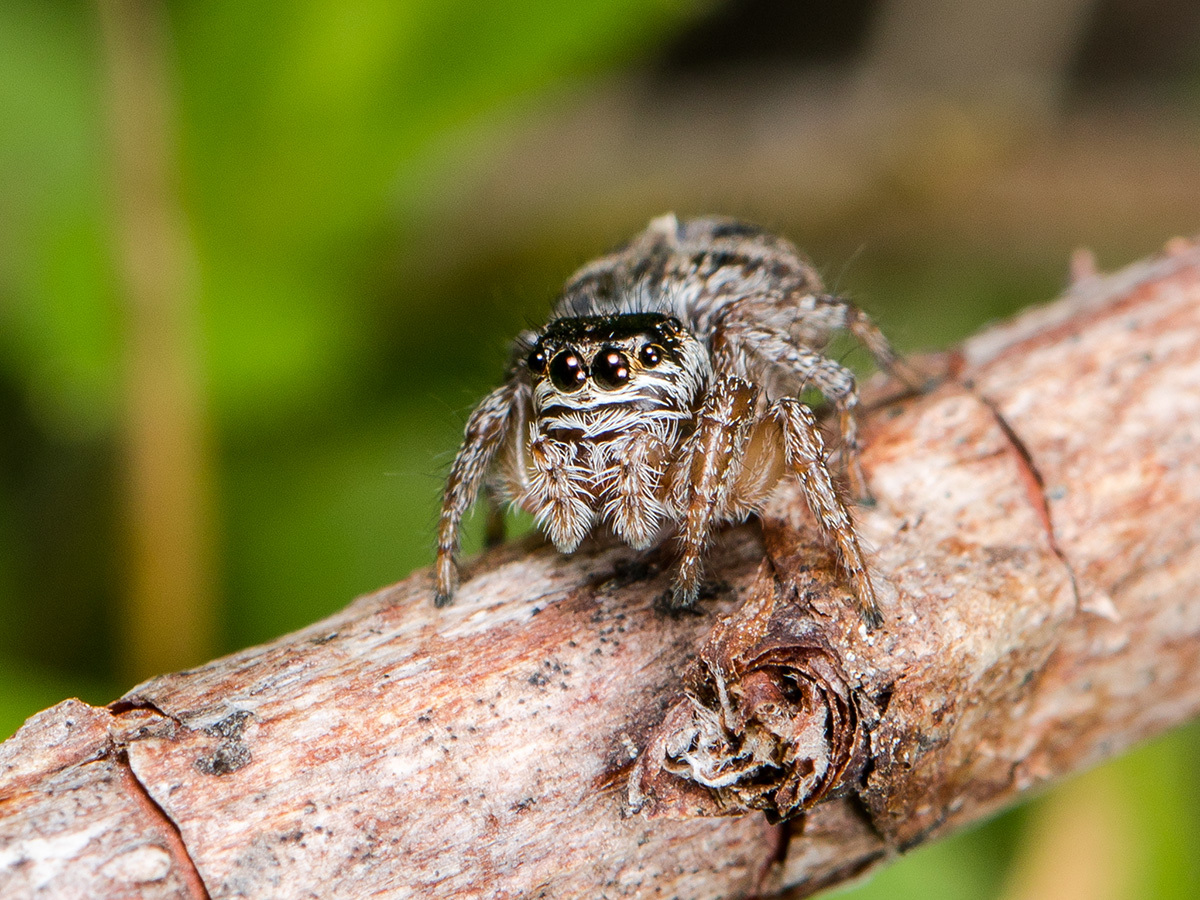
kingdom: Animalia
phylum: Arthropoda
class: Arachnida
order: Araneae
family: Salticidae
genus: Evarcha
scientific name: Evarcha arcuata
